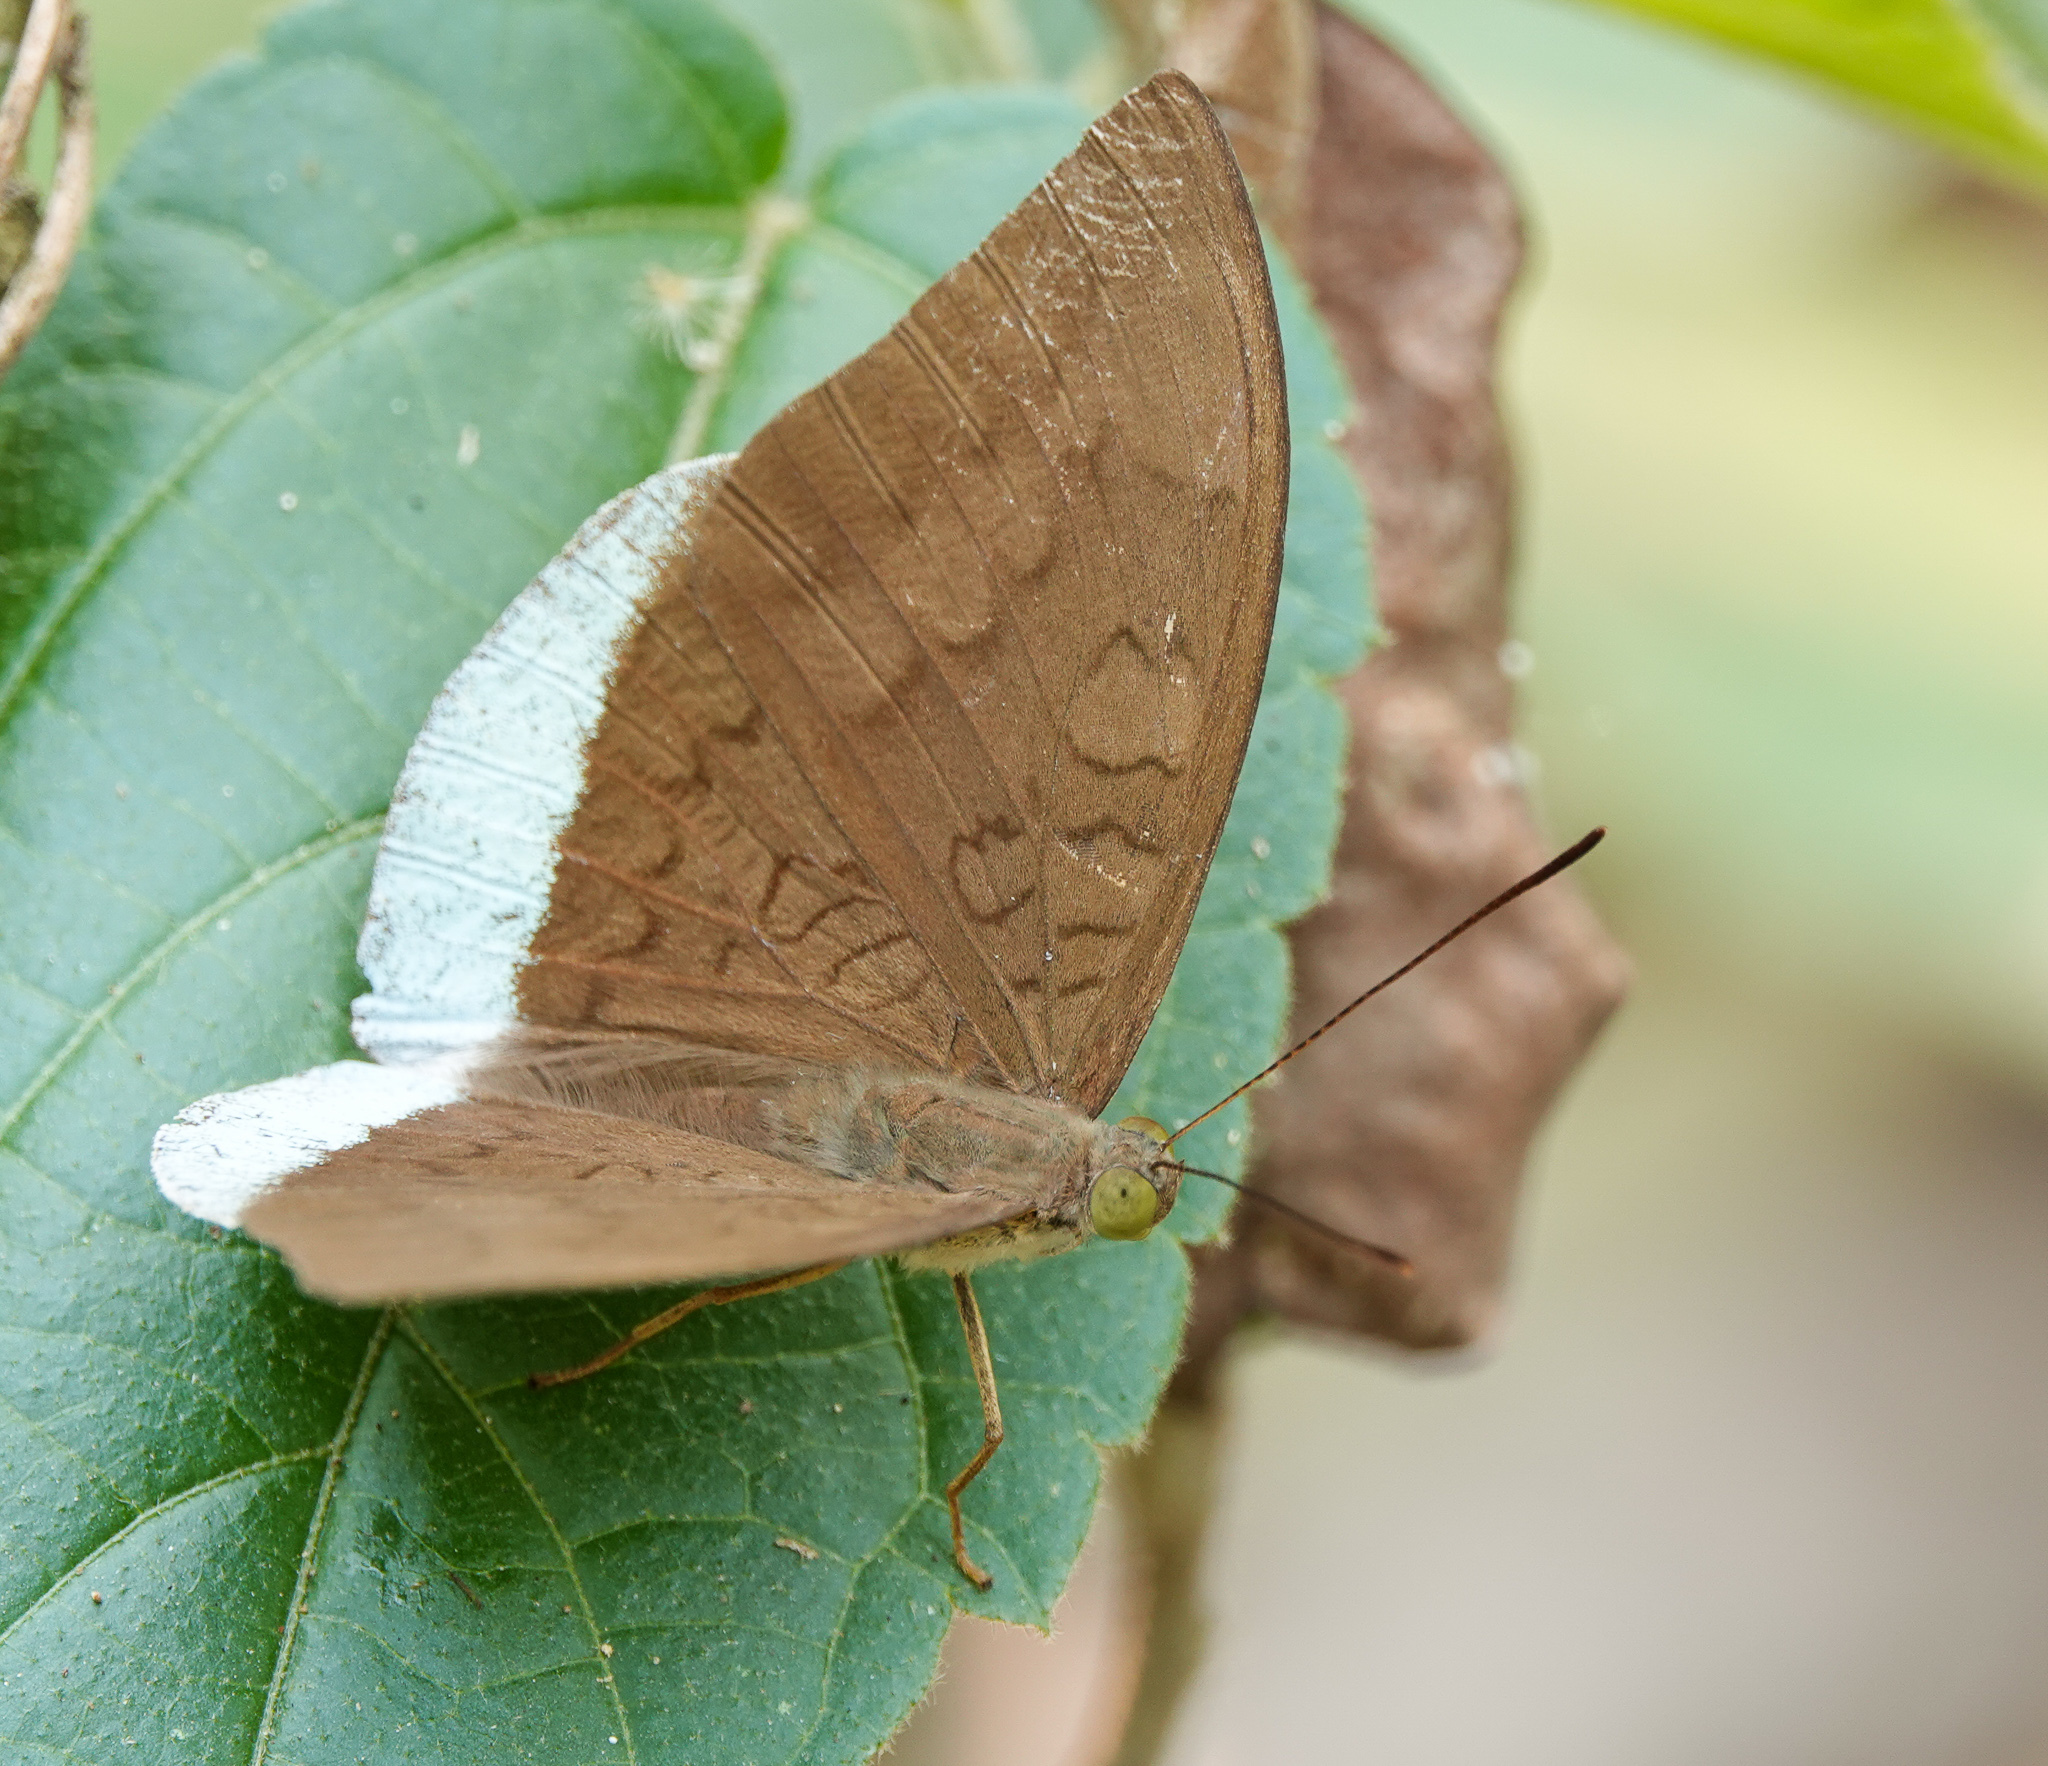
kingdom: Animalia
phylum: Arthropoda
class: Insecta
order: Lepidoptera
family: Nymphalidae
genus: Tanaecia
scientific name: Tanaecia julii
